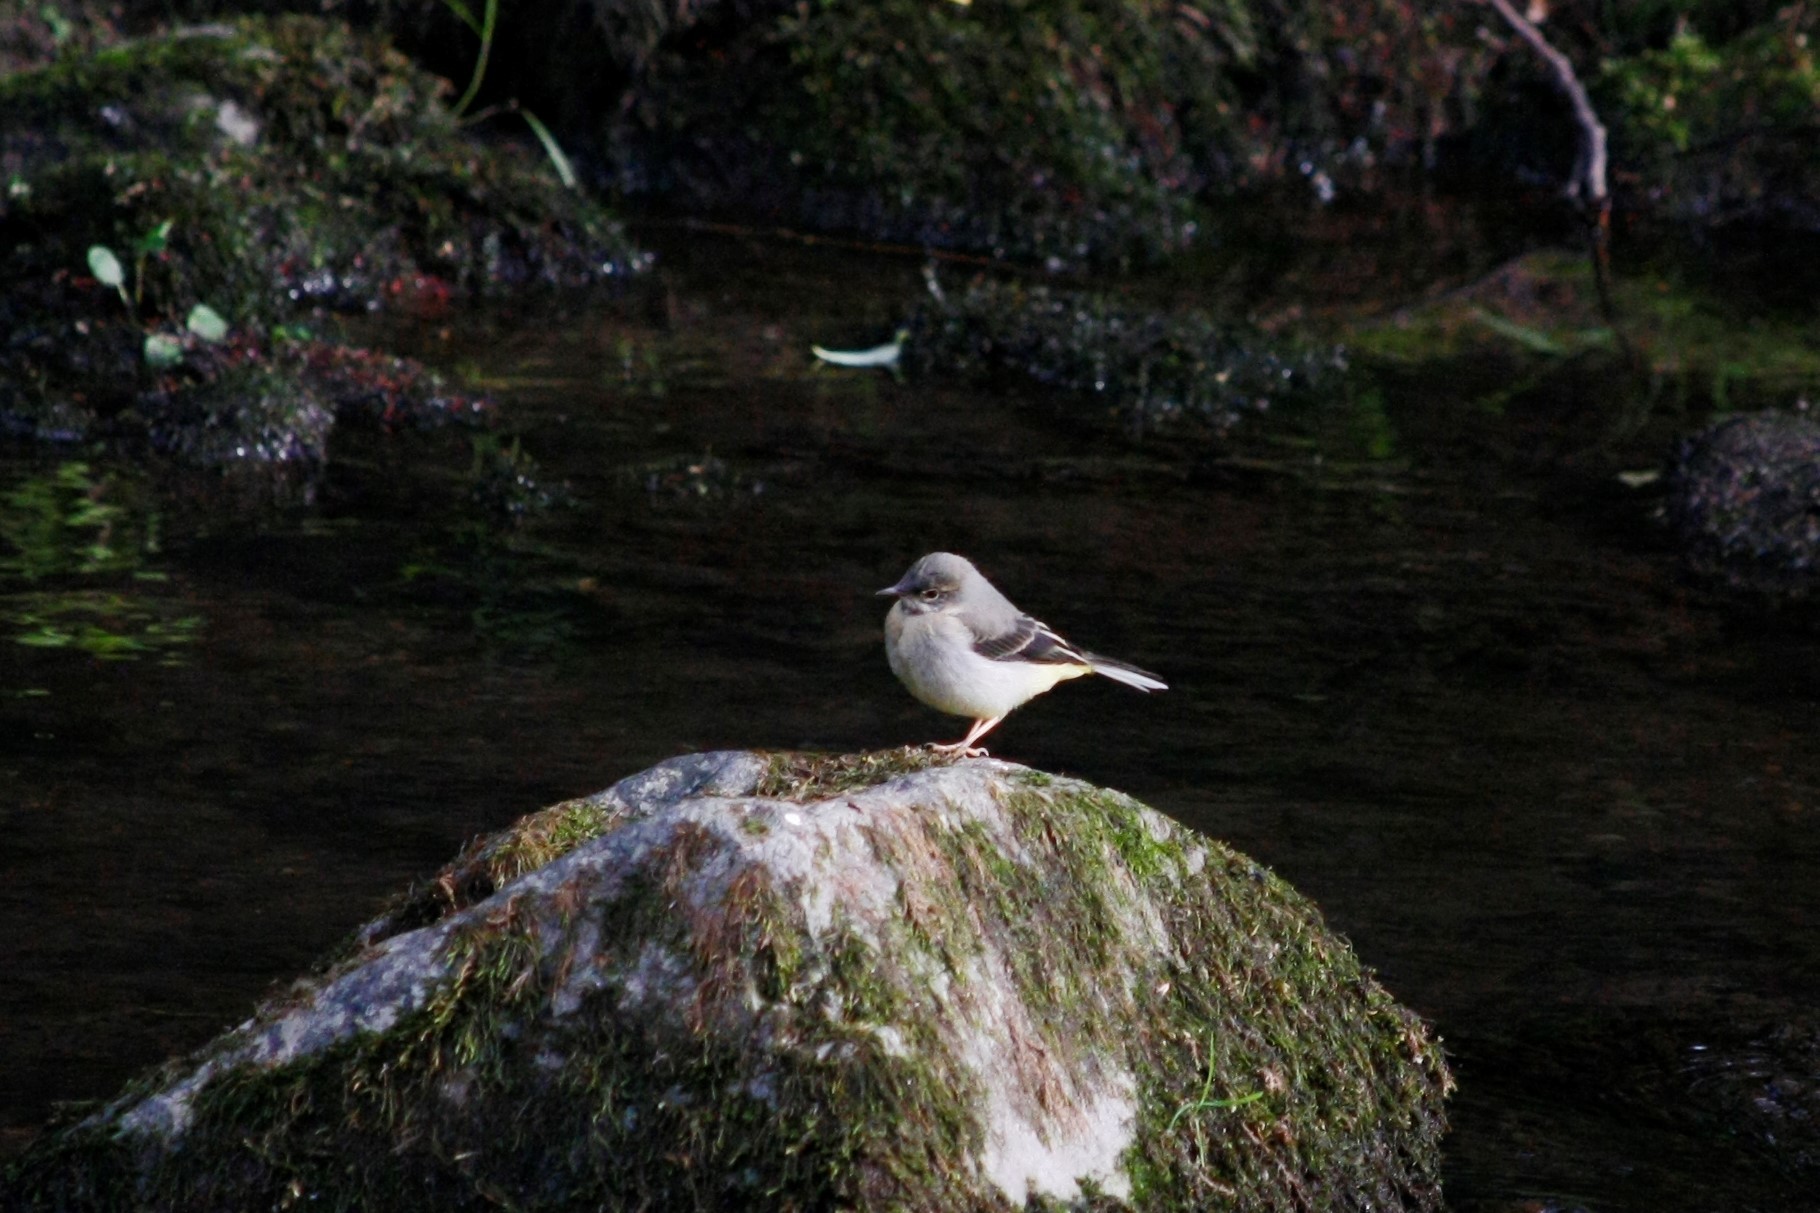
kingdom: Animalia
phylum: Chordata
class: Aves
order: Passeriformes
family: Motacillidae
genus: Motacilla
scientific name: Motacilla cinerea
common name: Grey wagtail
